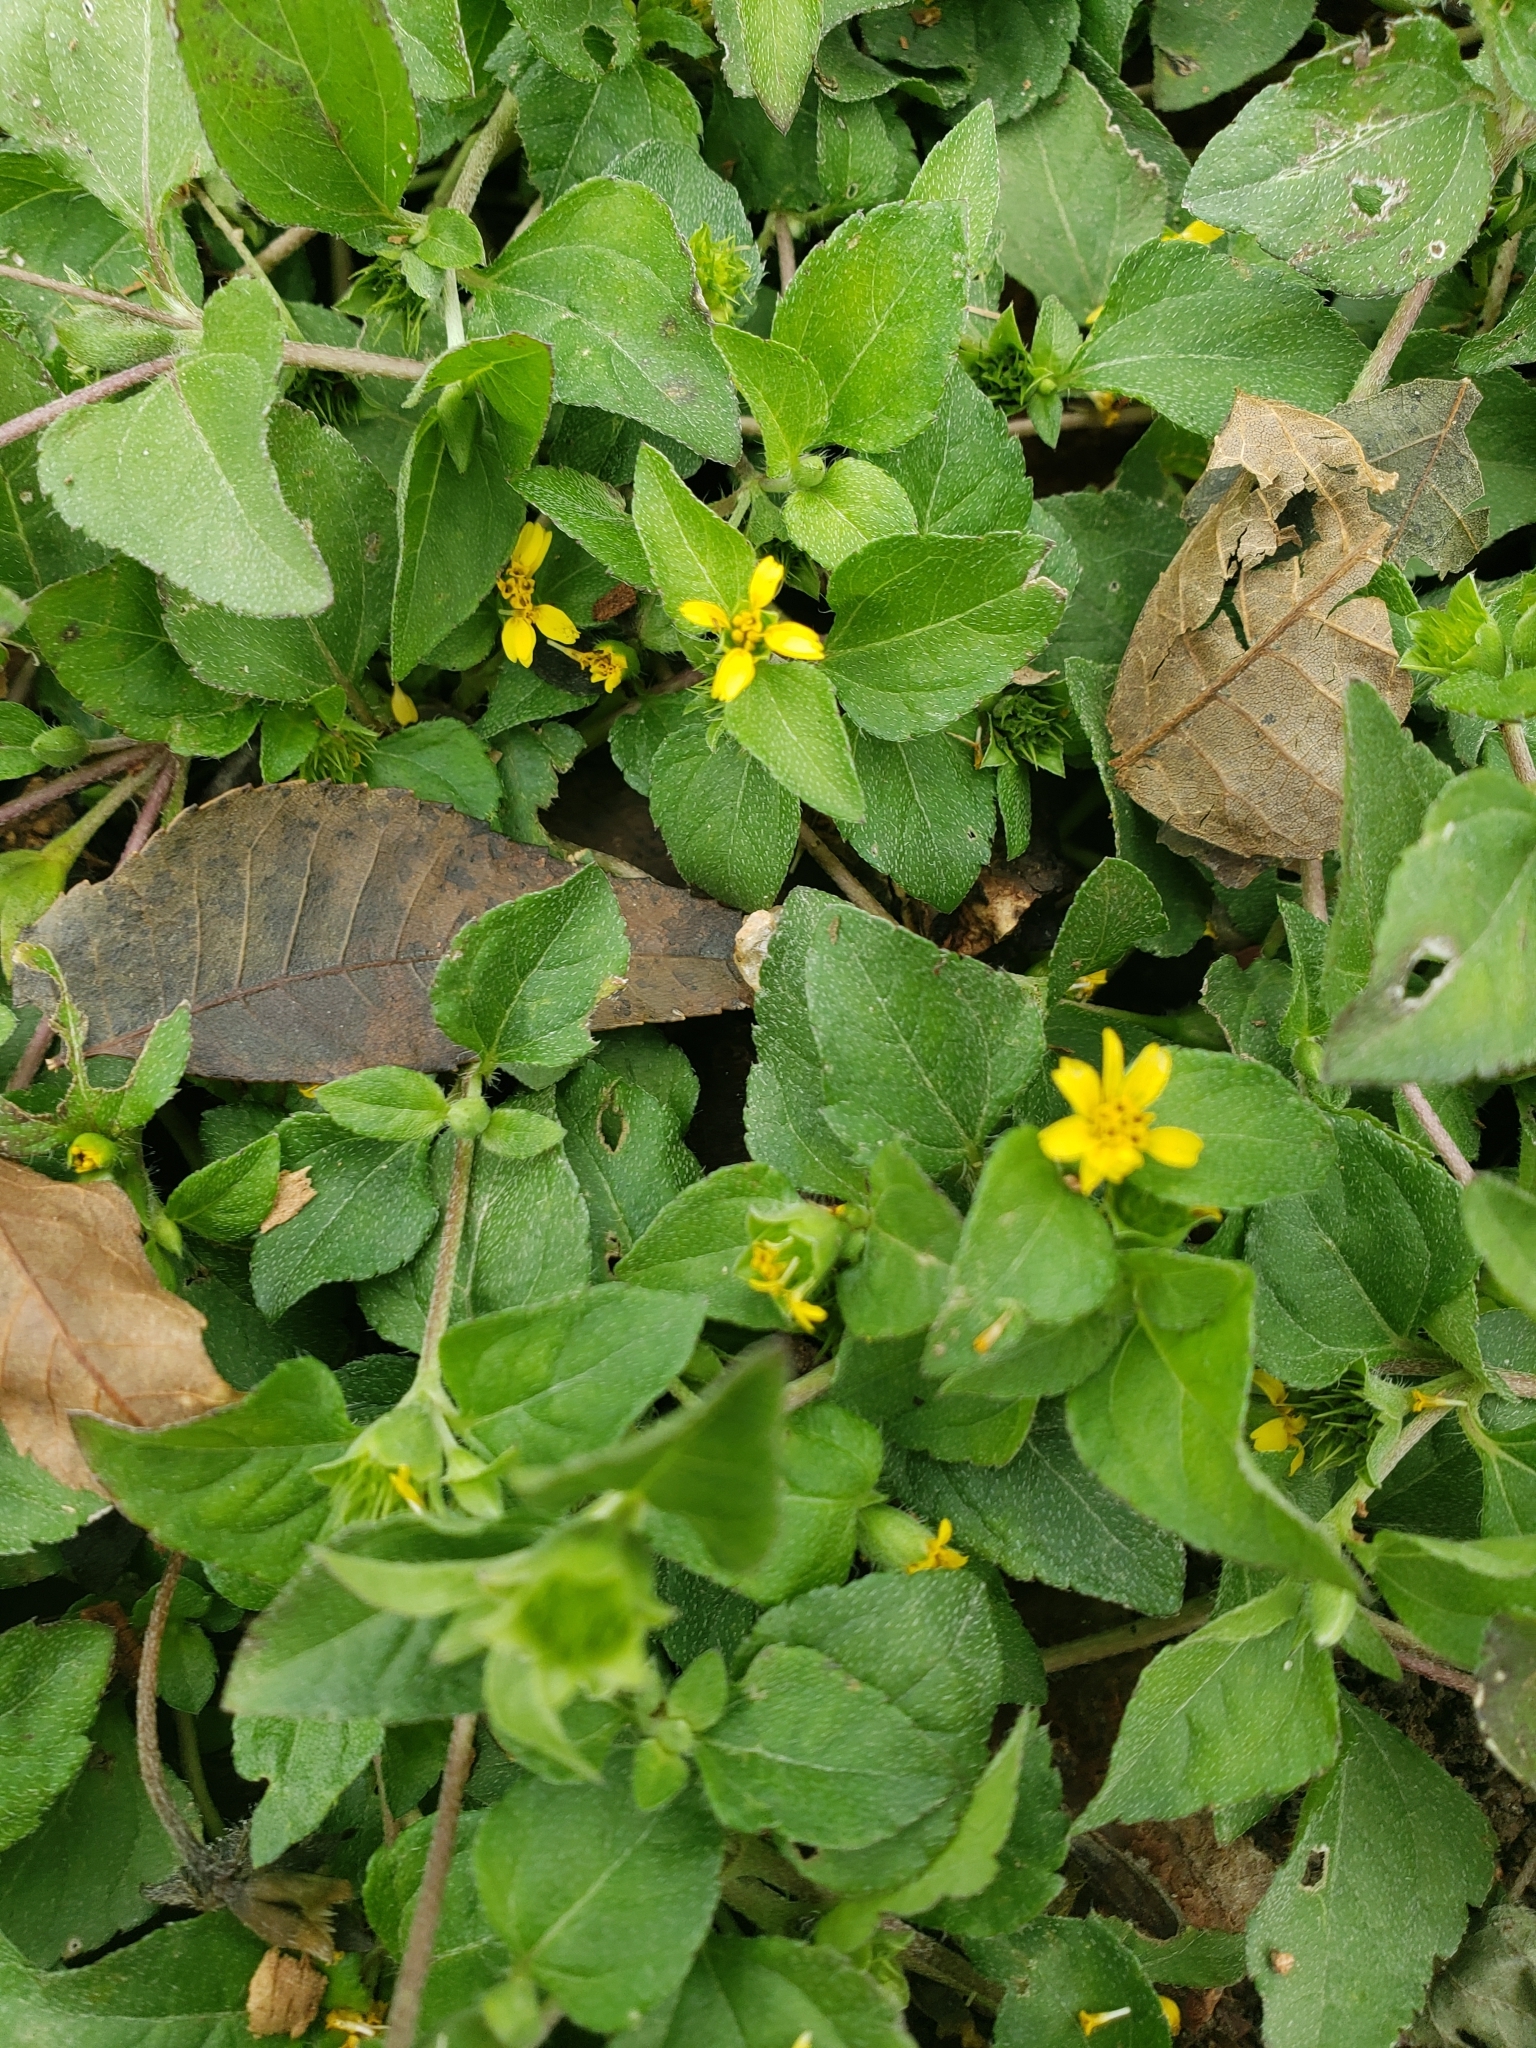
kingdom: Plantae
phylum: Tracheophyta
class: Magnoliopsida
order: Asterales
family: Asteraceae
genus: Calyptocarpus
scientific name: Calyptocarpus vialis
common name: Straggler daisy
